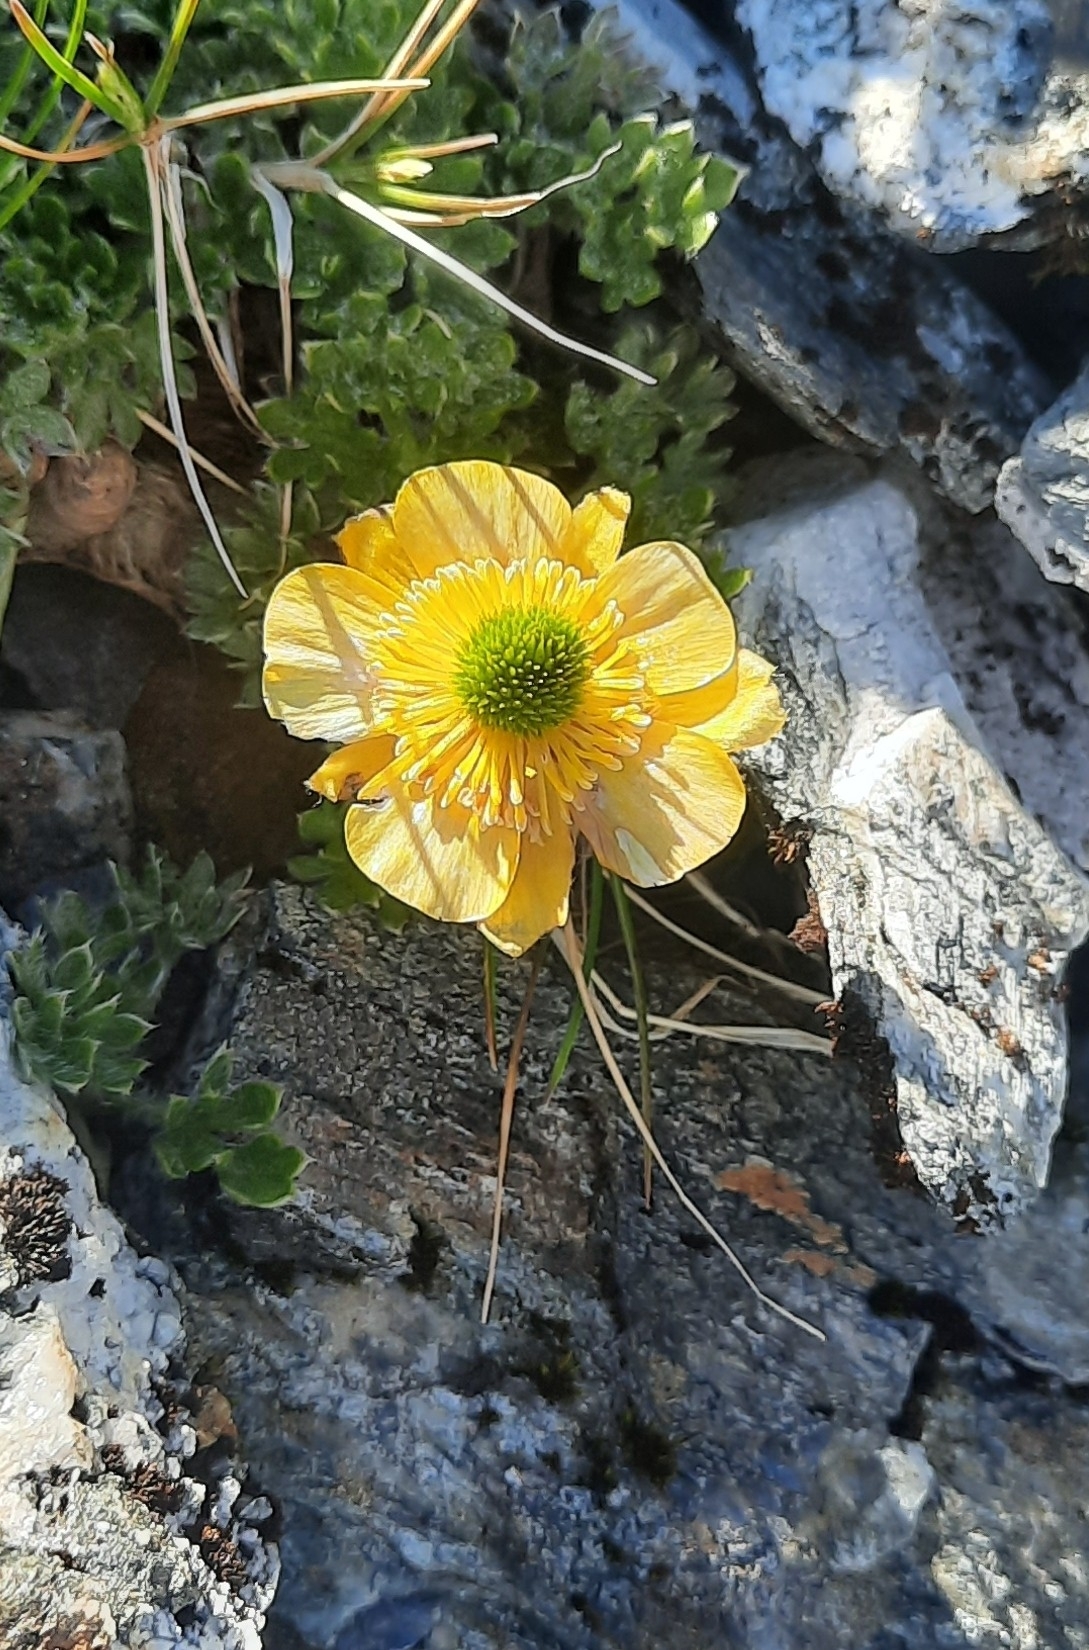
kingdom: Plantae
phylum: Tracheophyta
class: Magnoliopsida
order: Ranunculales
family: Ranunculaceae
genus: Ranunculus
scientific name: Ranunculus sericophyllus
